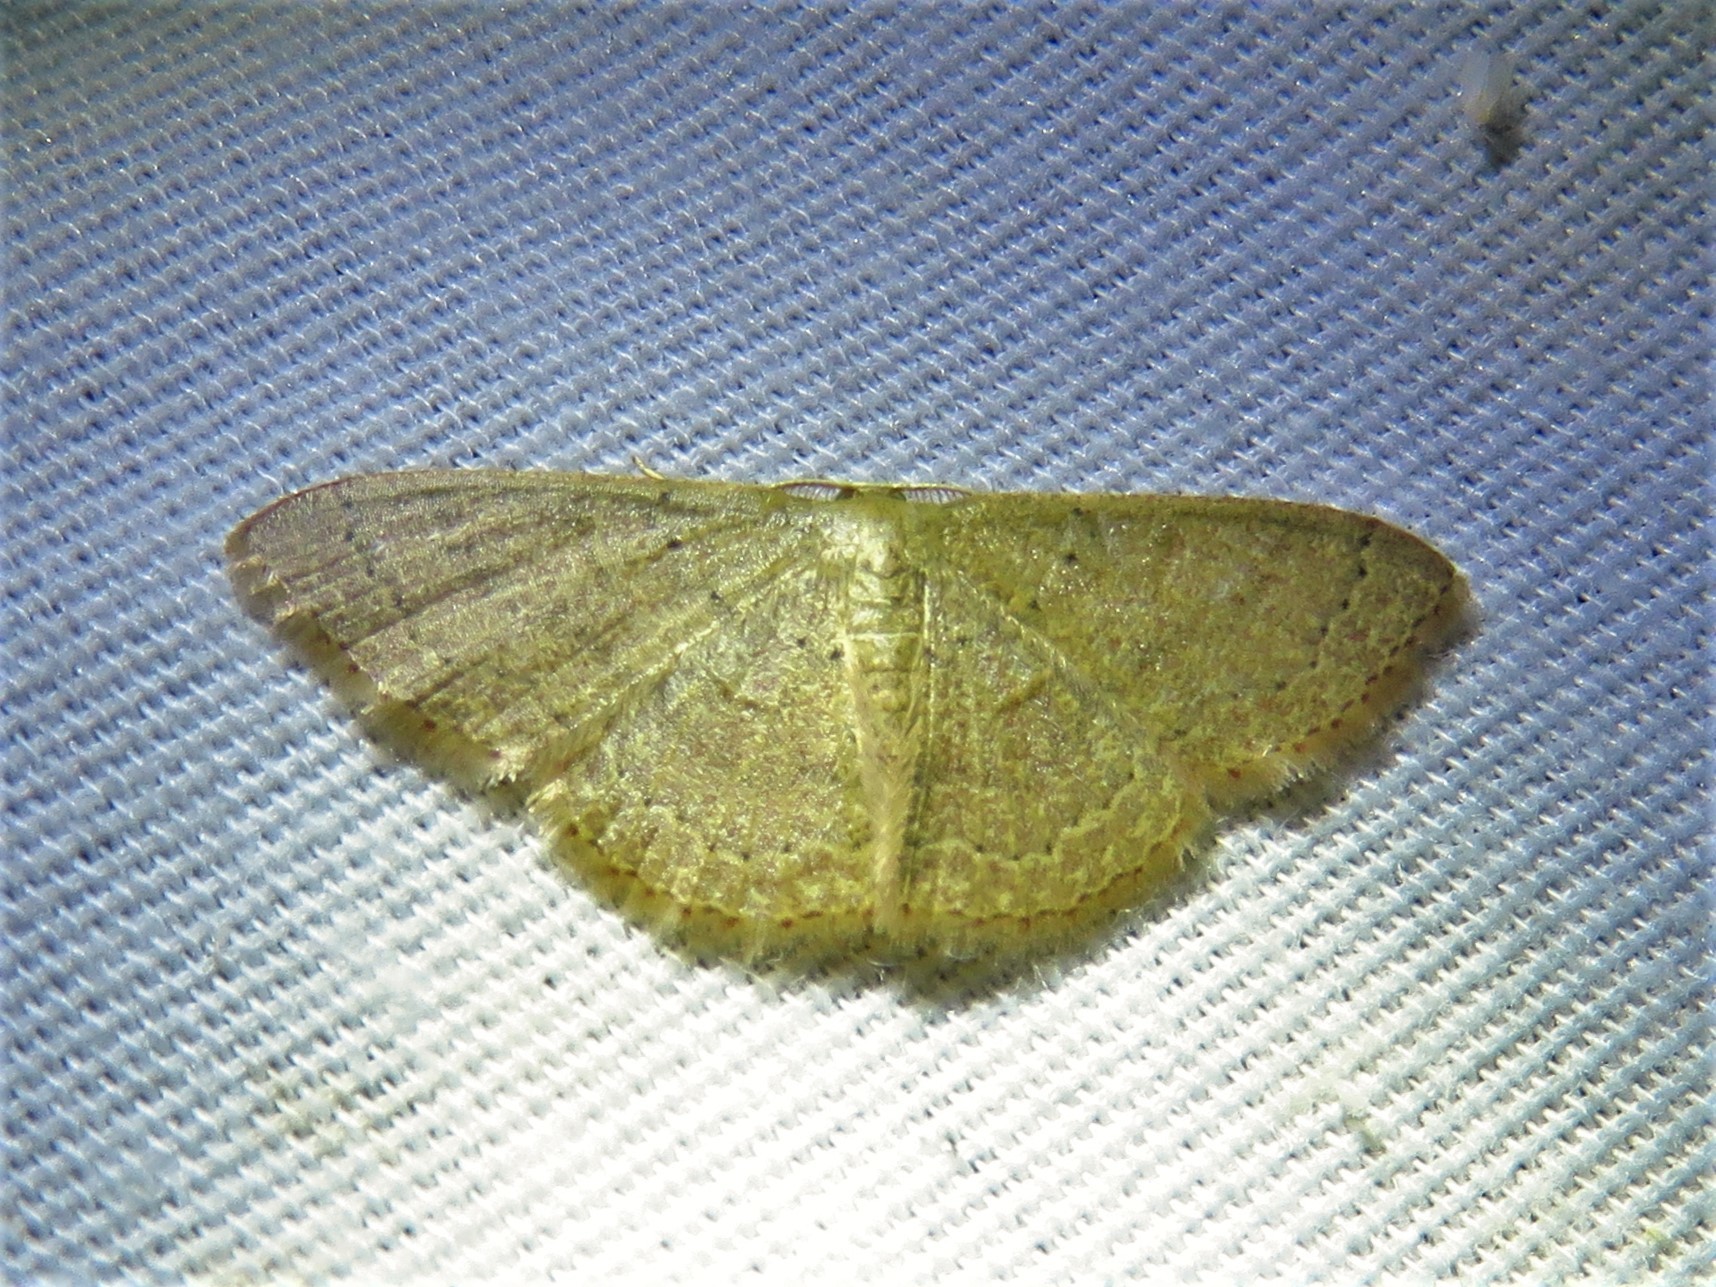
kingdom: Animalia
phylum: Arthropoda
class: Insecta
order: Lepidoptera
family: Geometridae
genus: Pleuroprucha
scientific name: Pleuroprucha insulsaria
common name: Common tan wave
